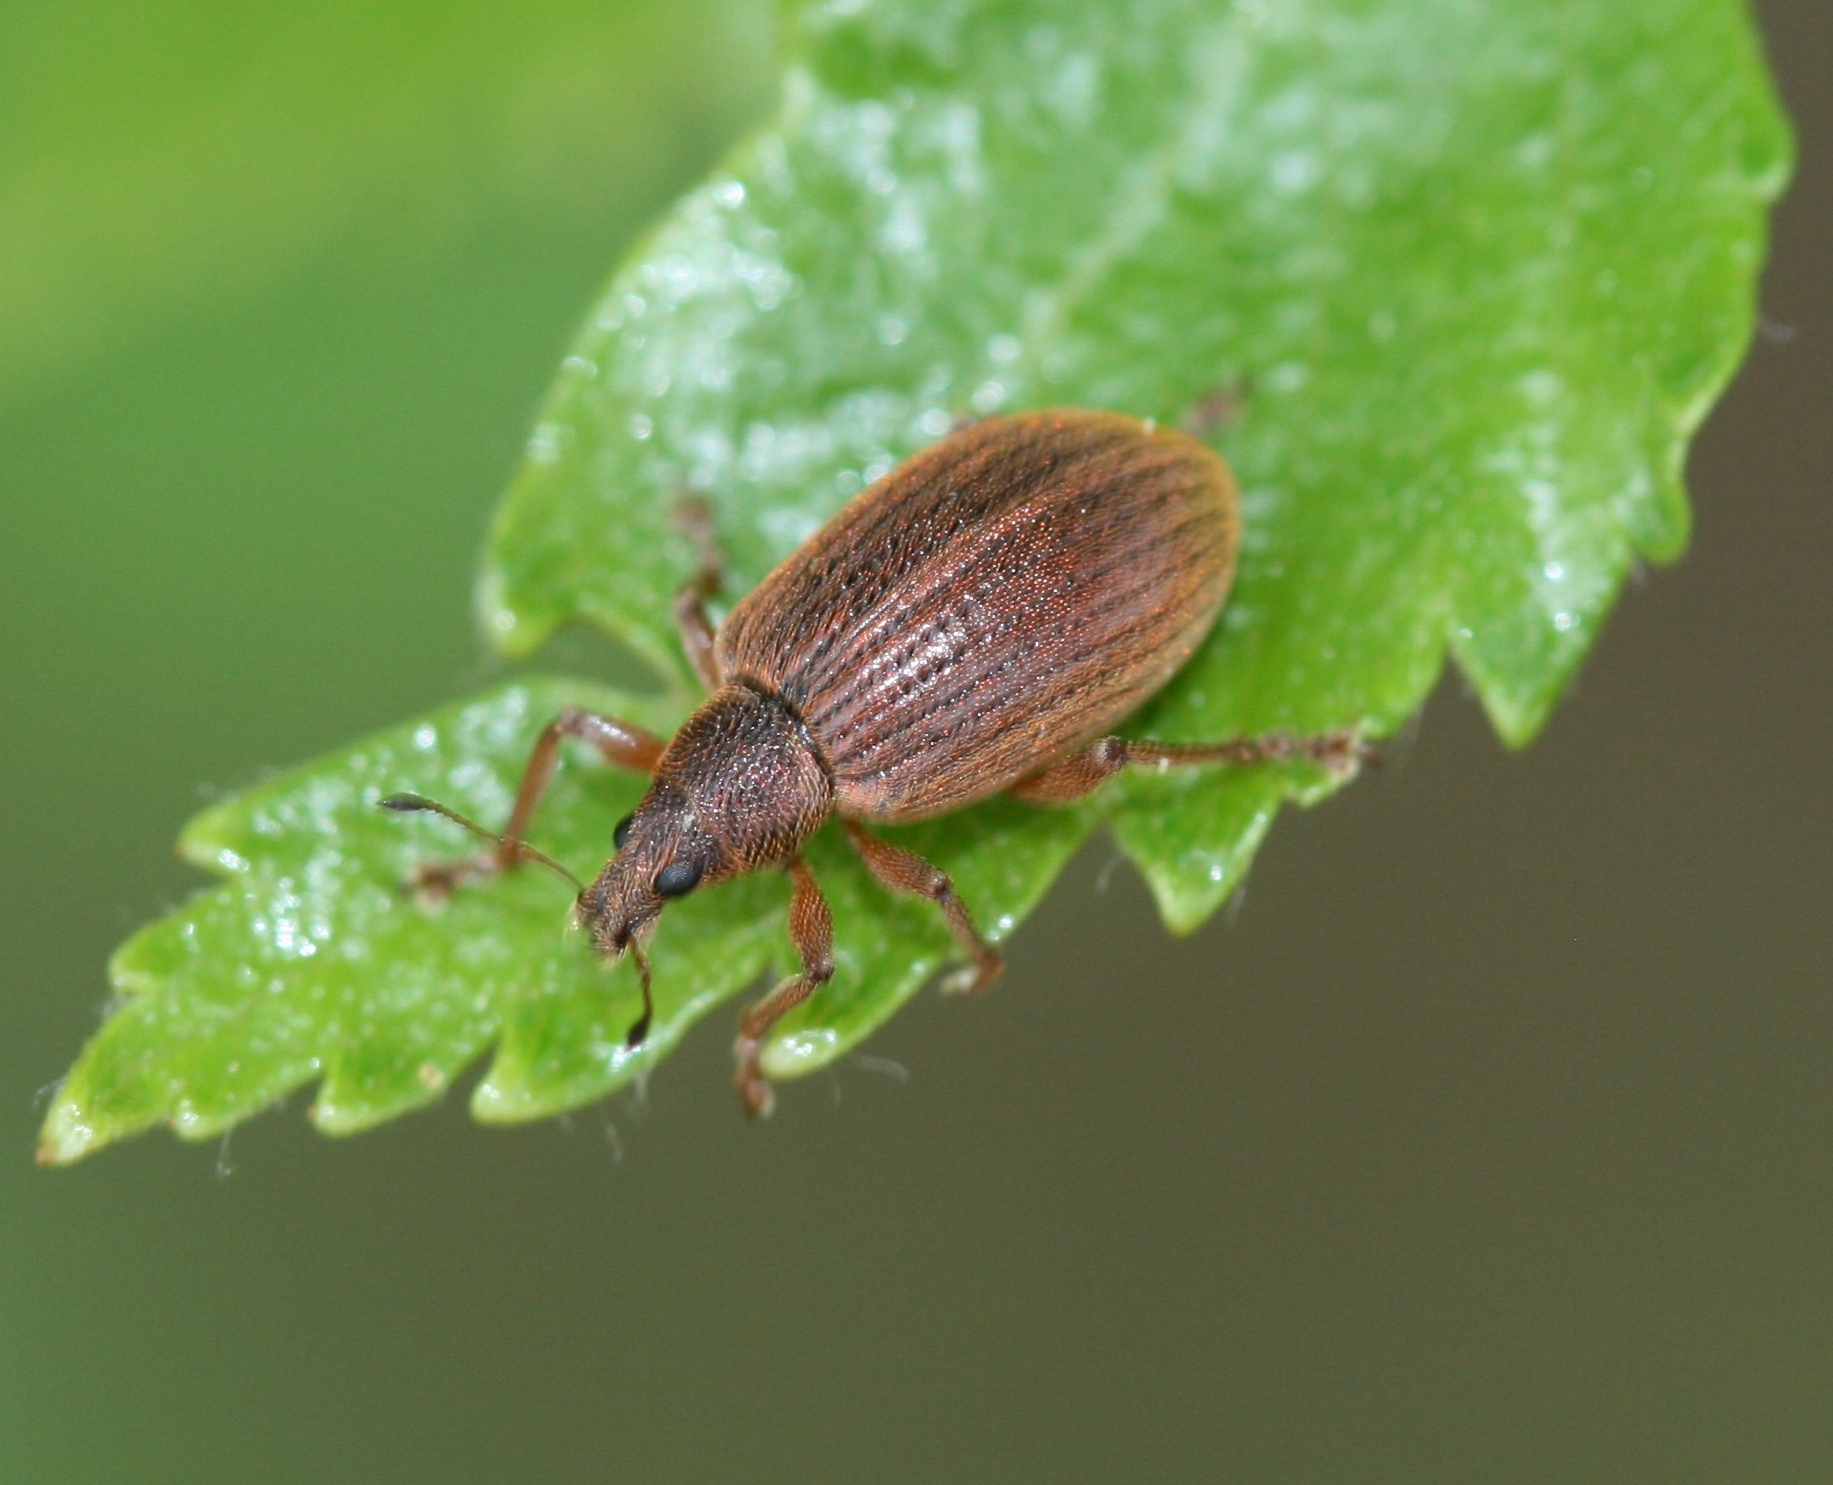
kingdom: Animalia
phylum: Arthropoda
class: Insecta
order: Coleoptera
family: Curculionidae
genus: Polydrusus
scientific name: Polydrusus mollis
